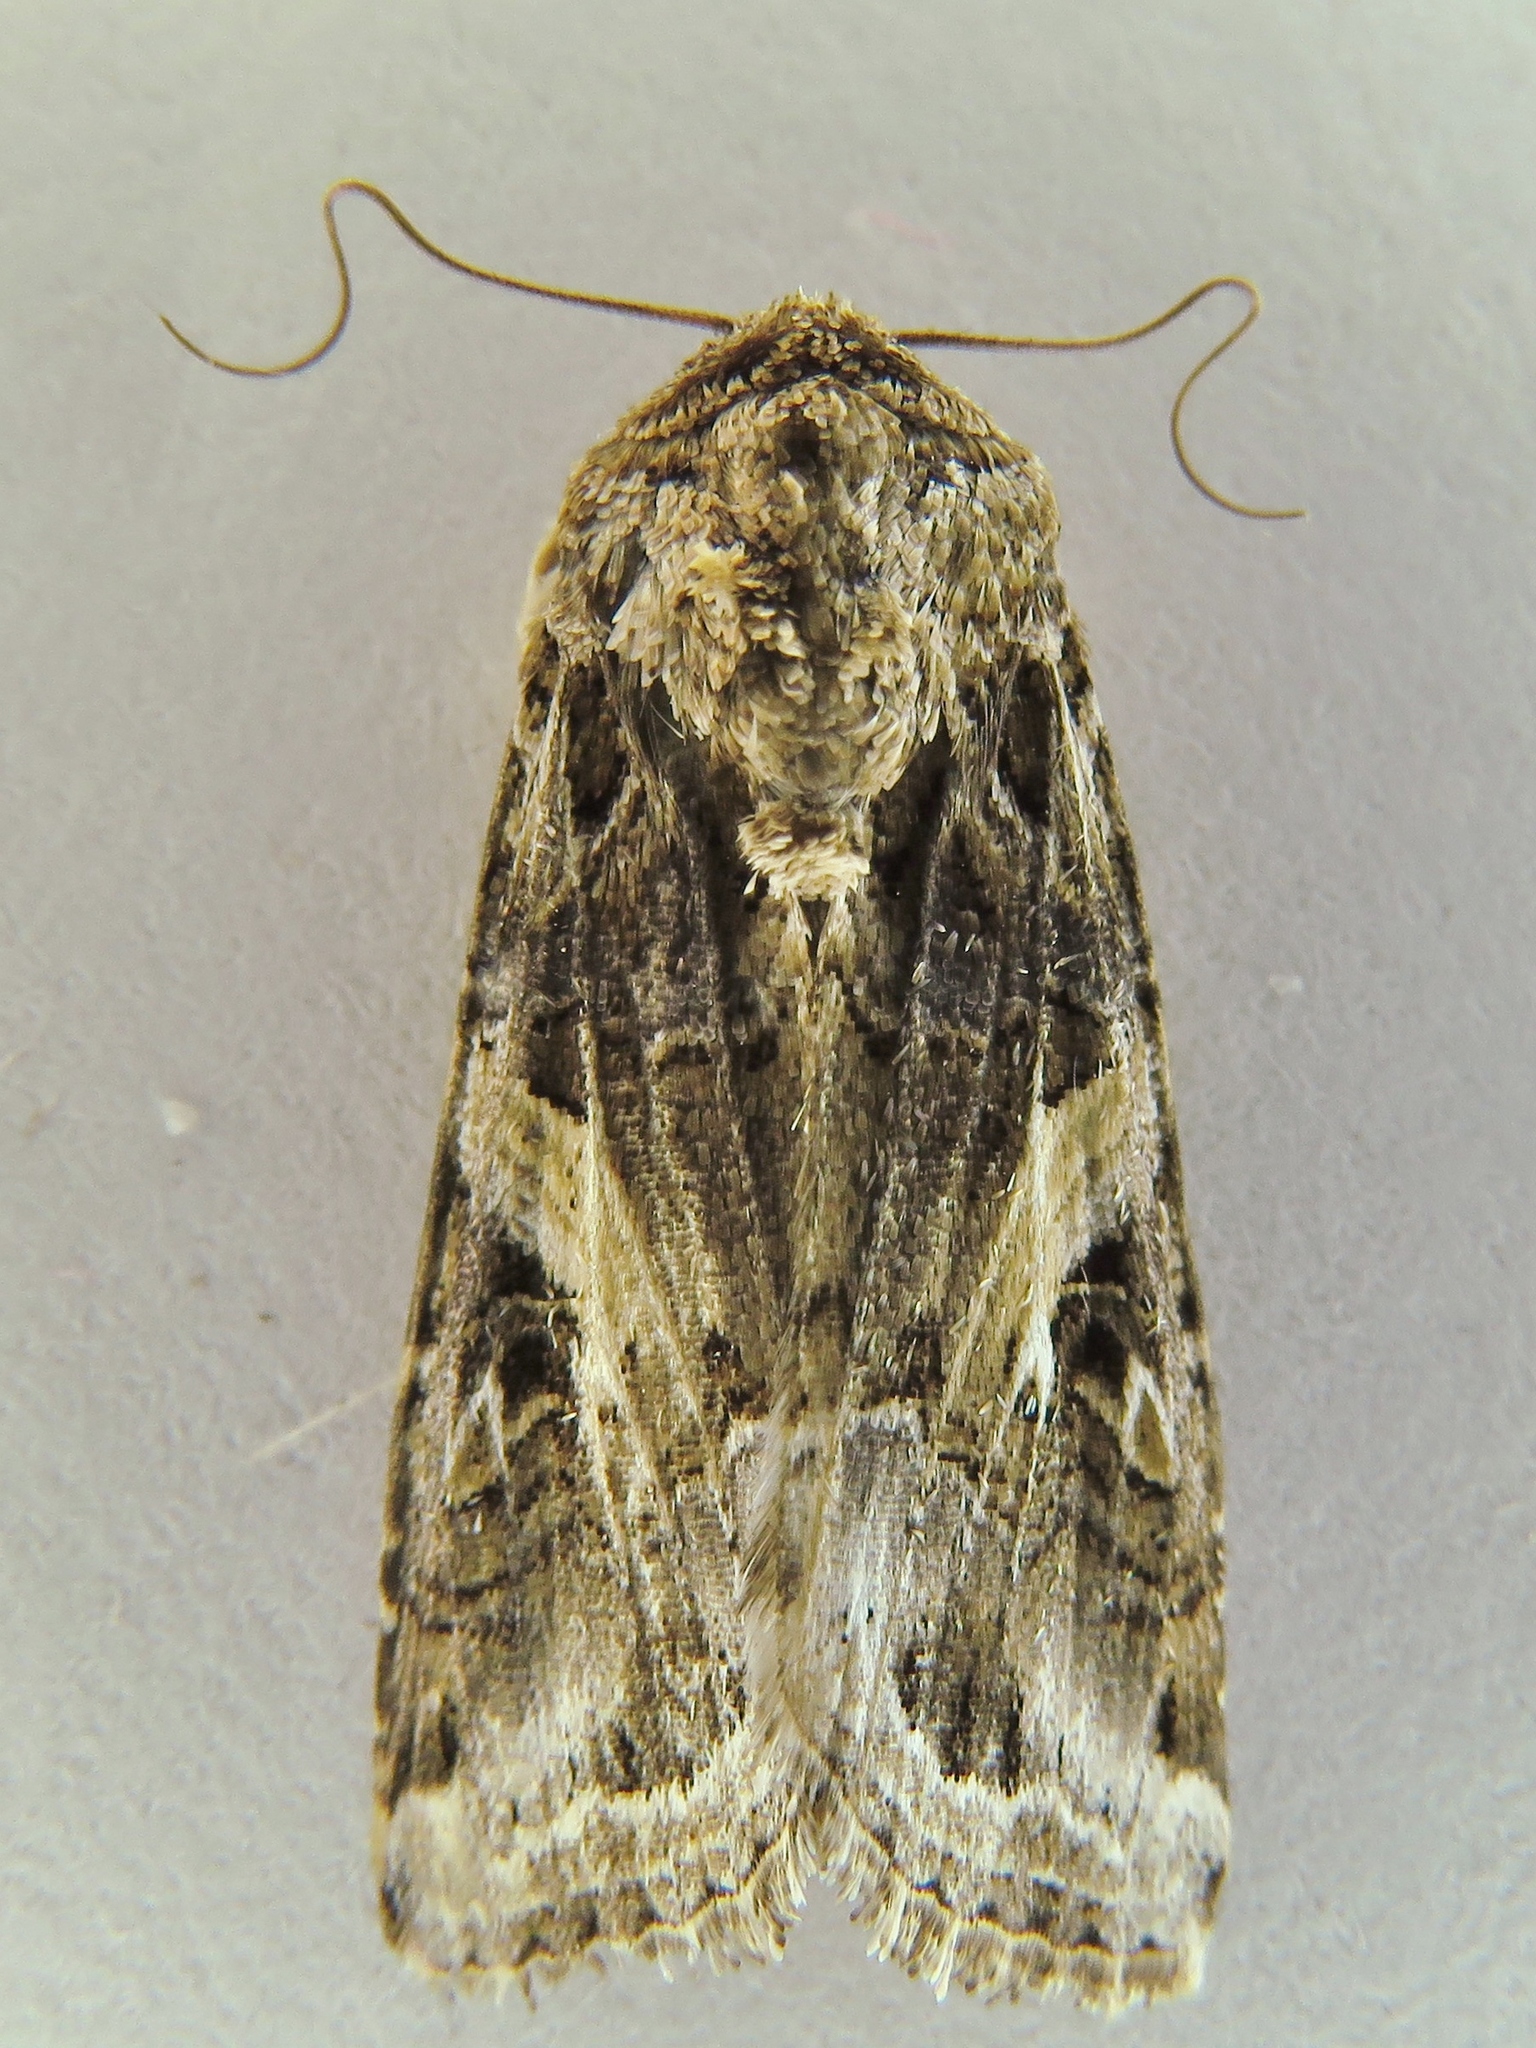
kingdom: Animalia
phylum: Arthropoda
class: Insecta
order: Lepidoptera
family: Noctuidae
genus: Spodoptera
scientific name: Spodoptera ornithogalli
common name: Yellow-striped armyworm
